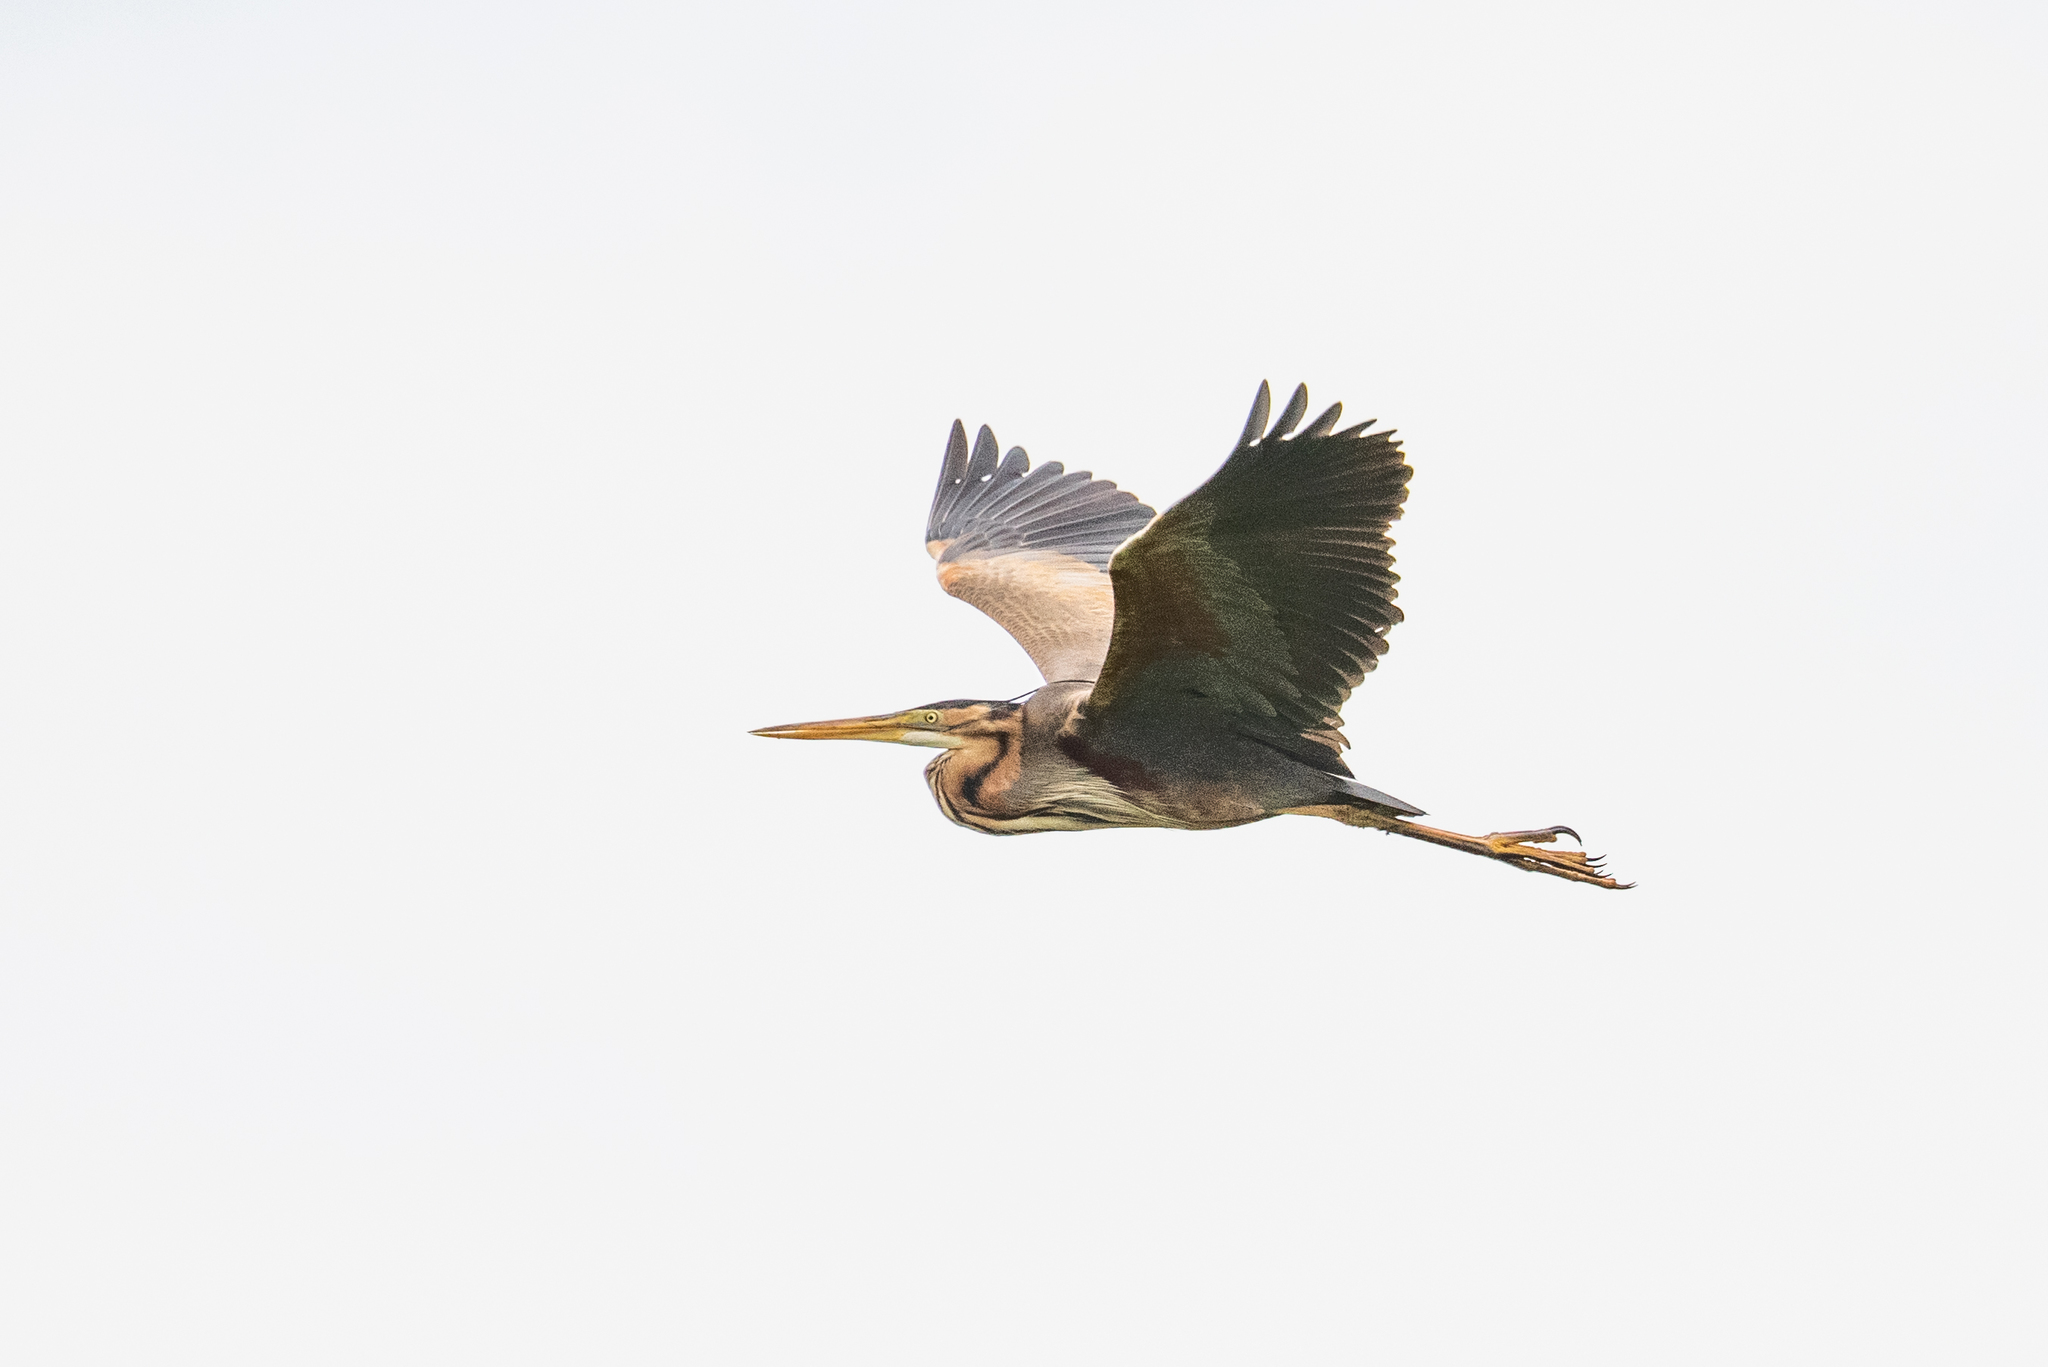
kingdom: Animalia
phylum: Chordata
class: Aves
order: Pelecaniformes
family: Ardeidae
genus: Ardea
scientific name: Ardea purpurea
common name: Purple heron
